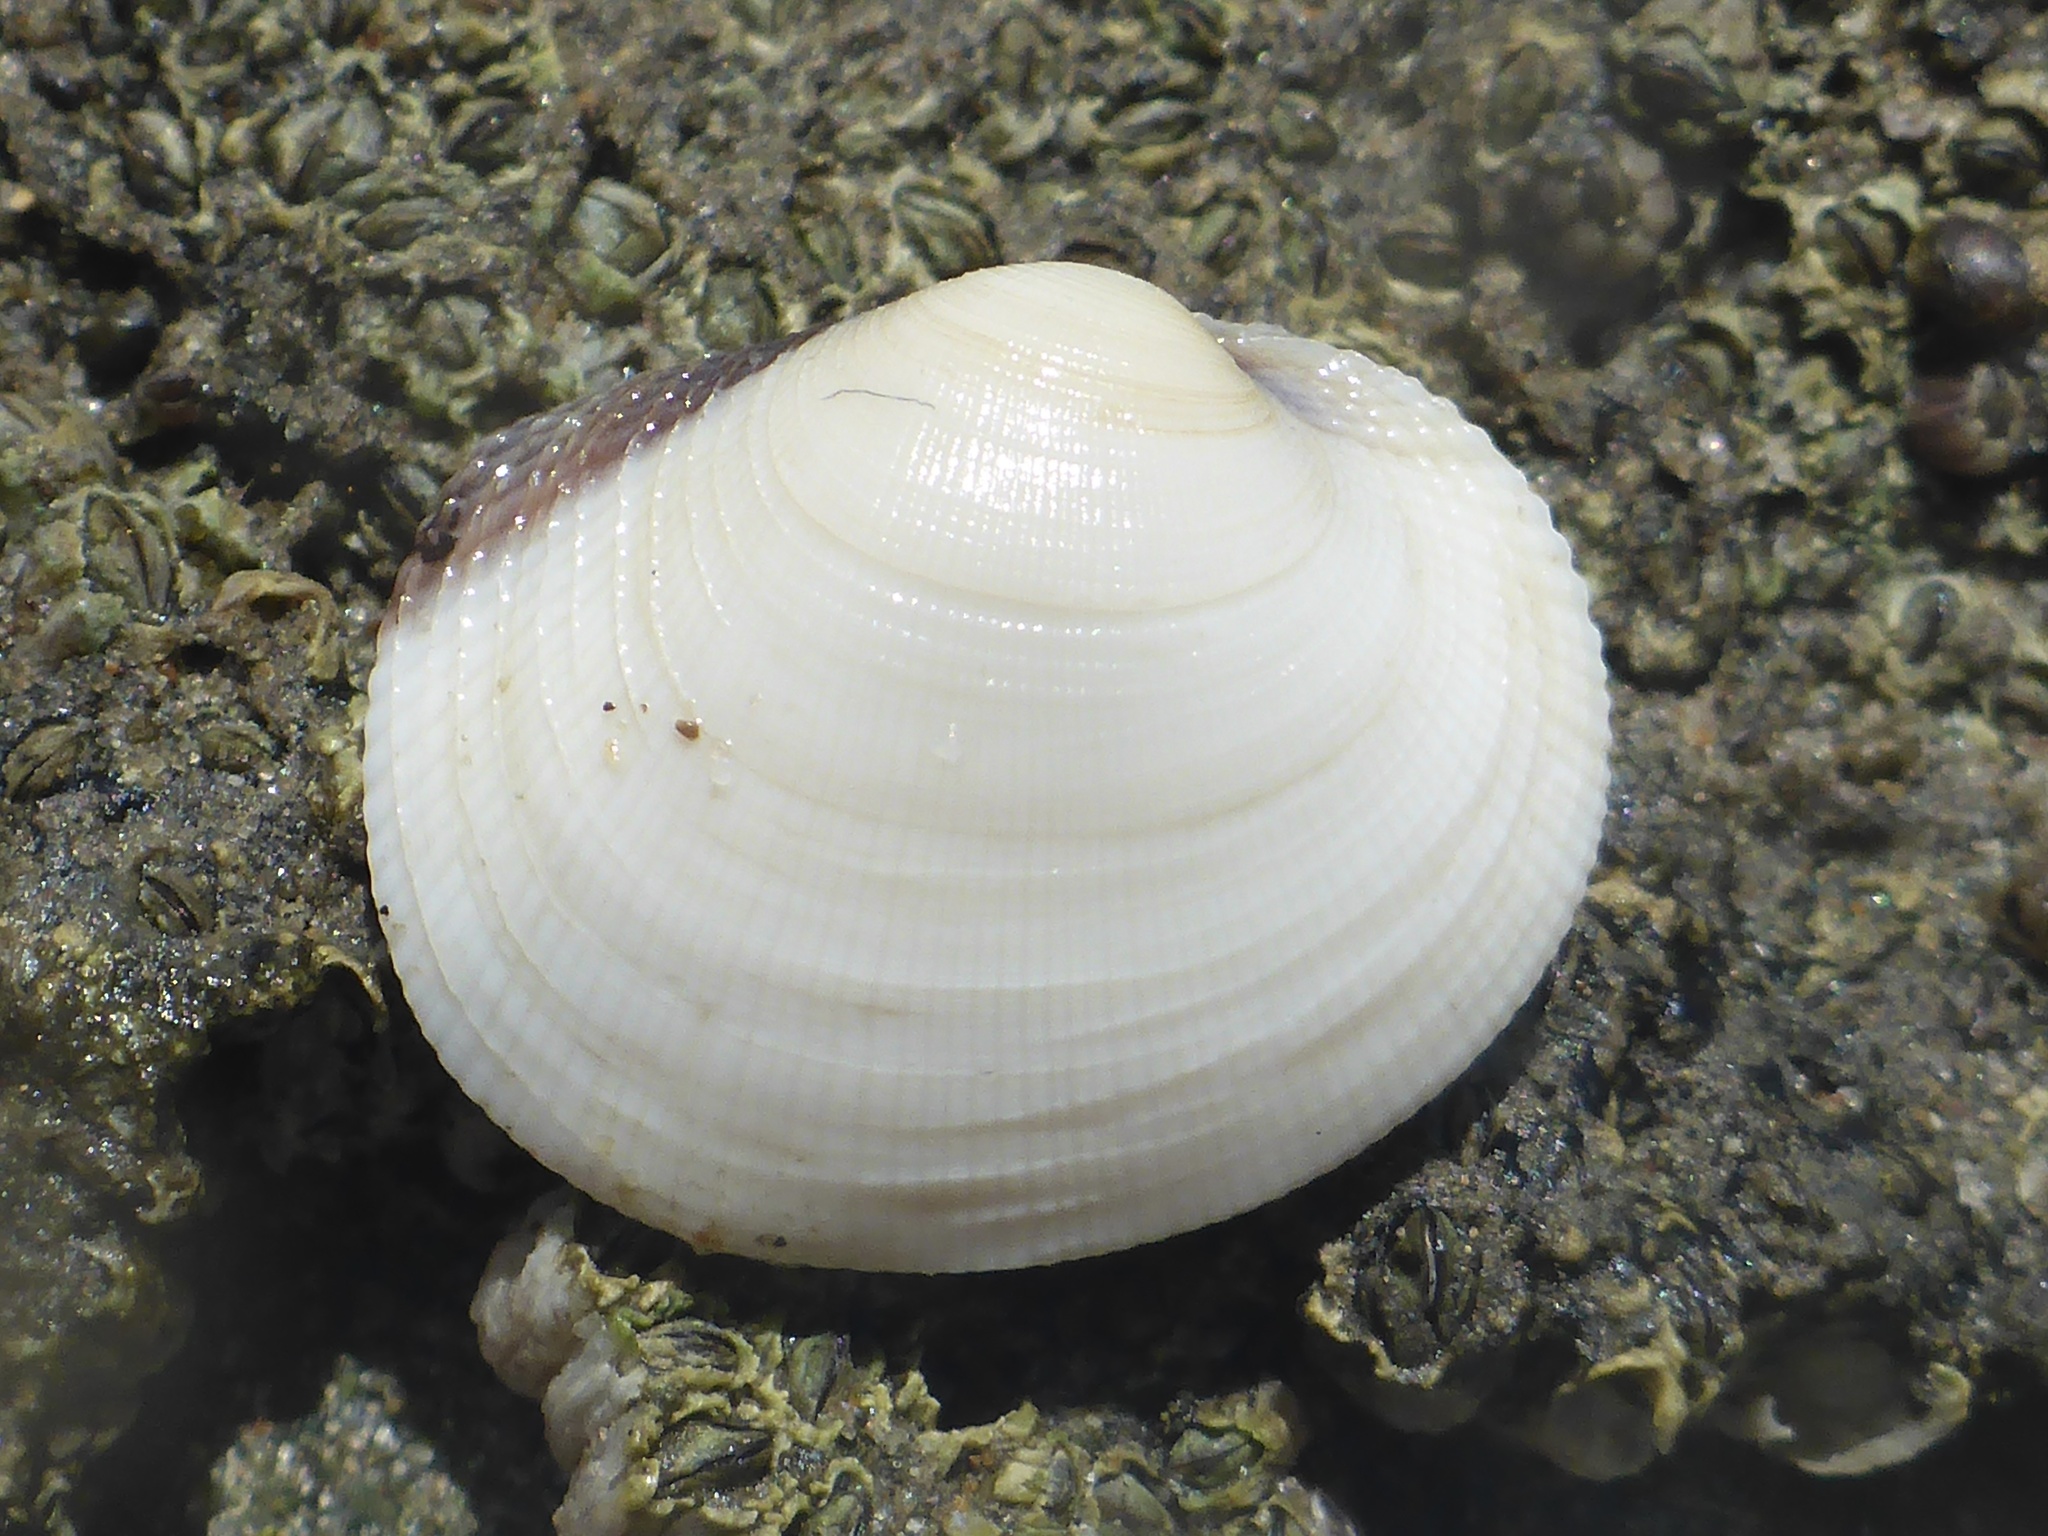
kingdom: Animalia
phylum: Mollusca
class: Bivalvia
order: Venerida
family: Veneridae
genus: Leukoma
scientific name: Leukoma staminea
